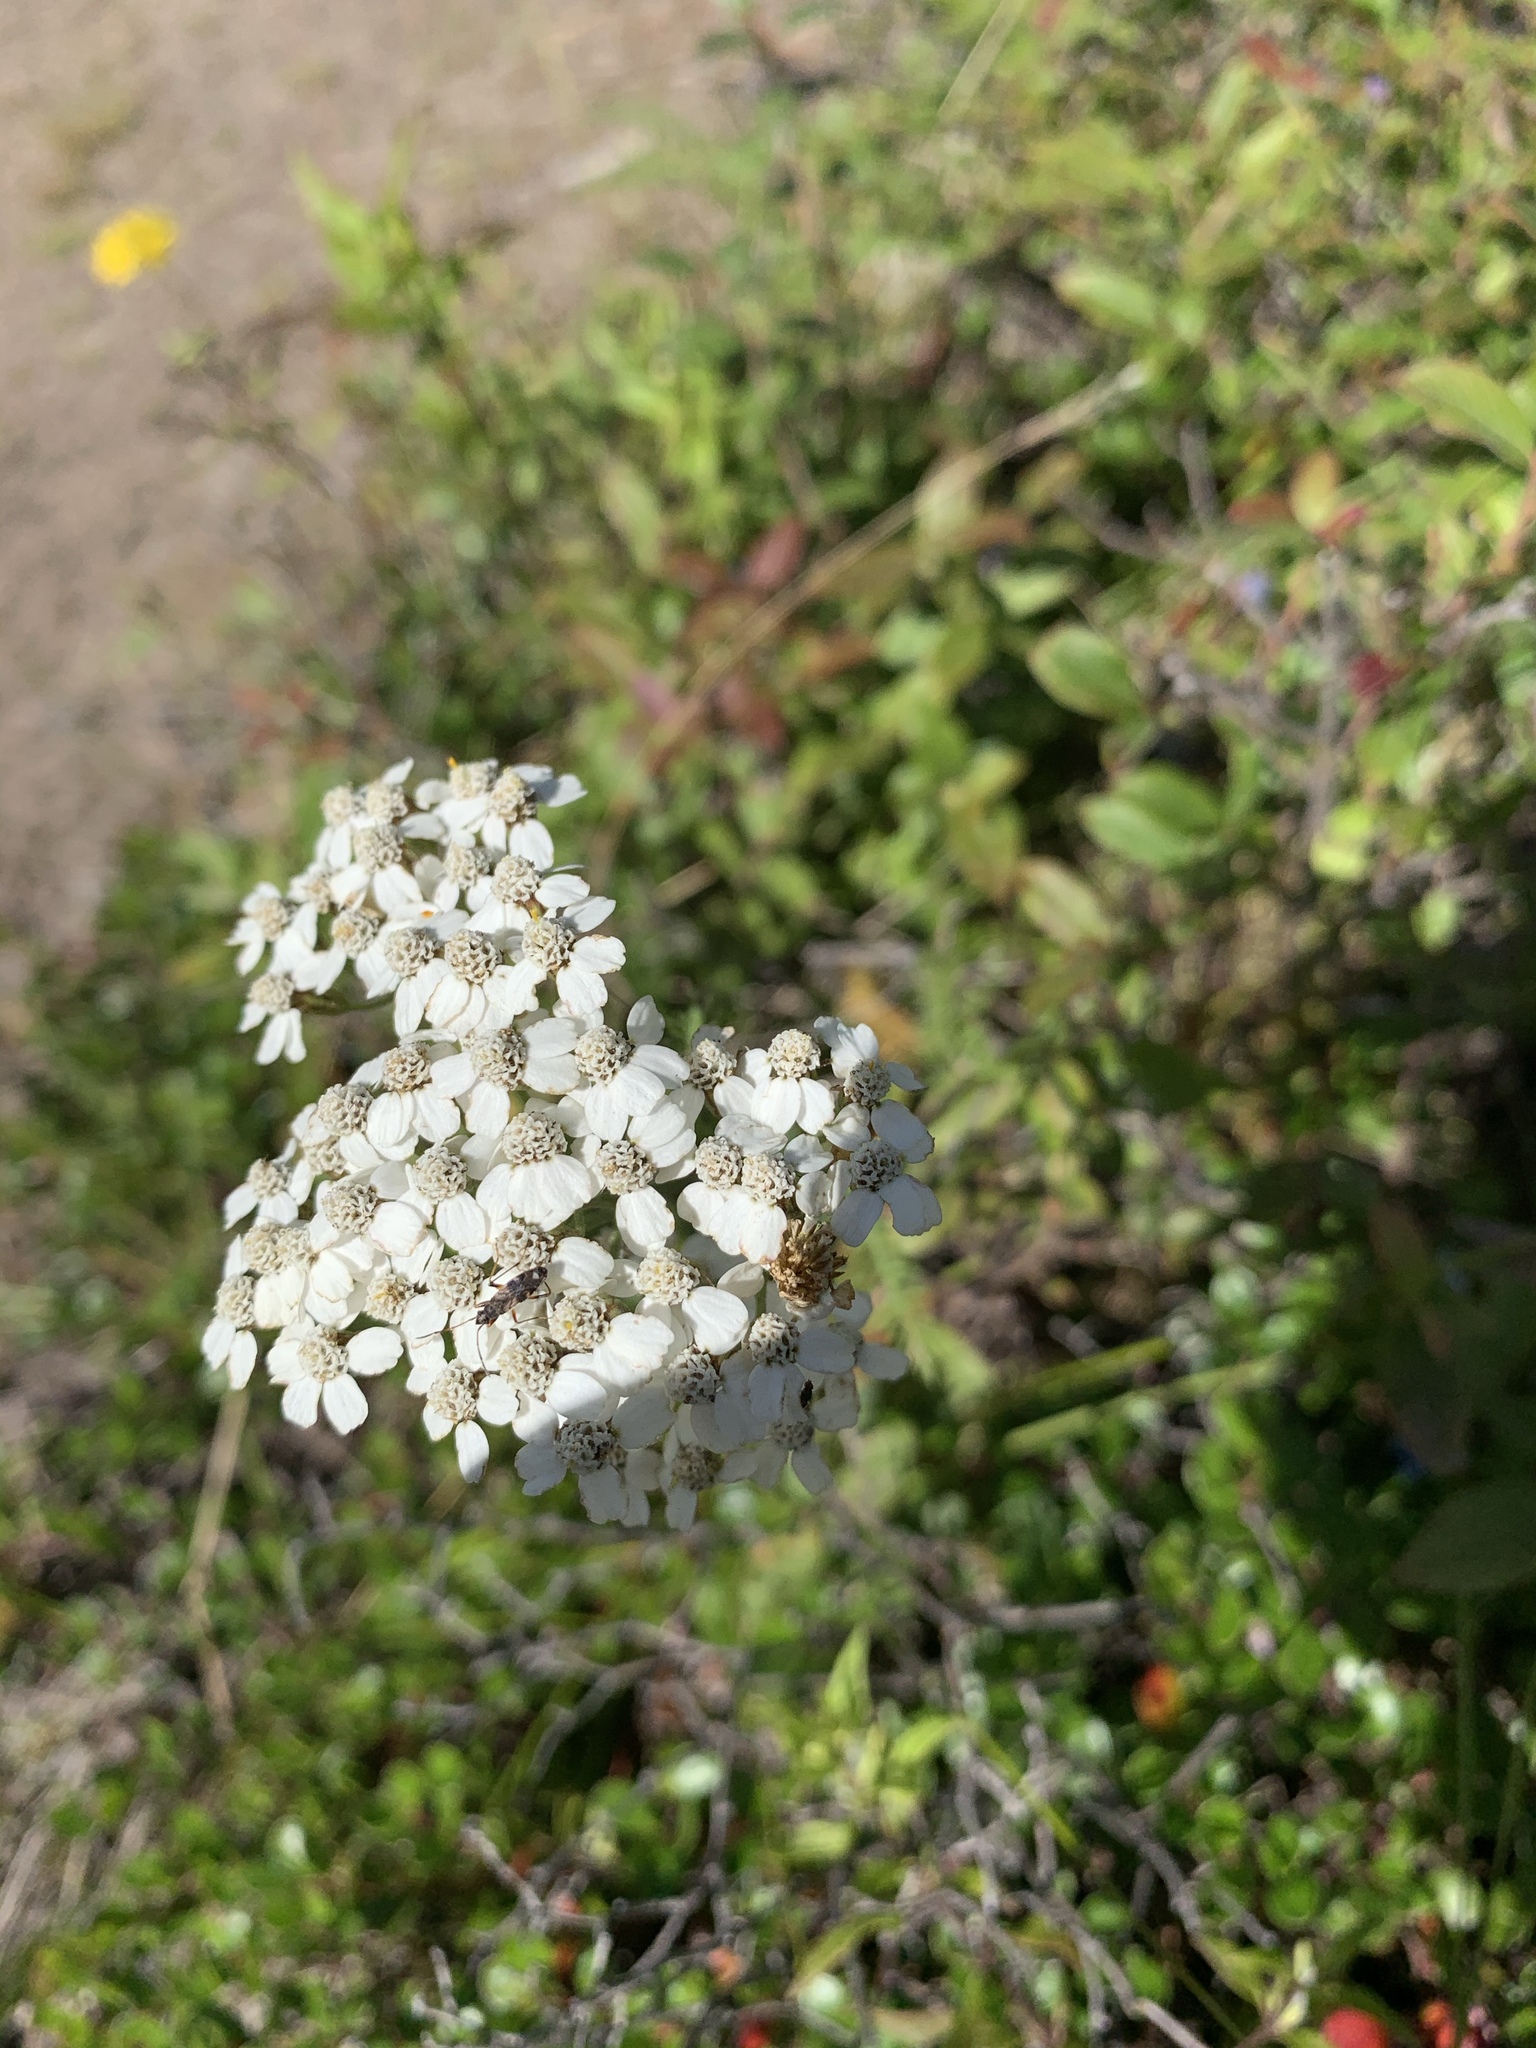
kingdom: Plantae
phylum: Tracheophyta
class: Magnoliopsida
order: Asterales
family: Asteraceae
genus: Achillea
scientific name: Achillea millefolium
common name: Yarrow
